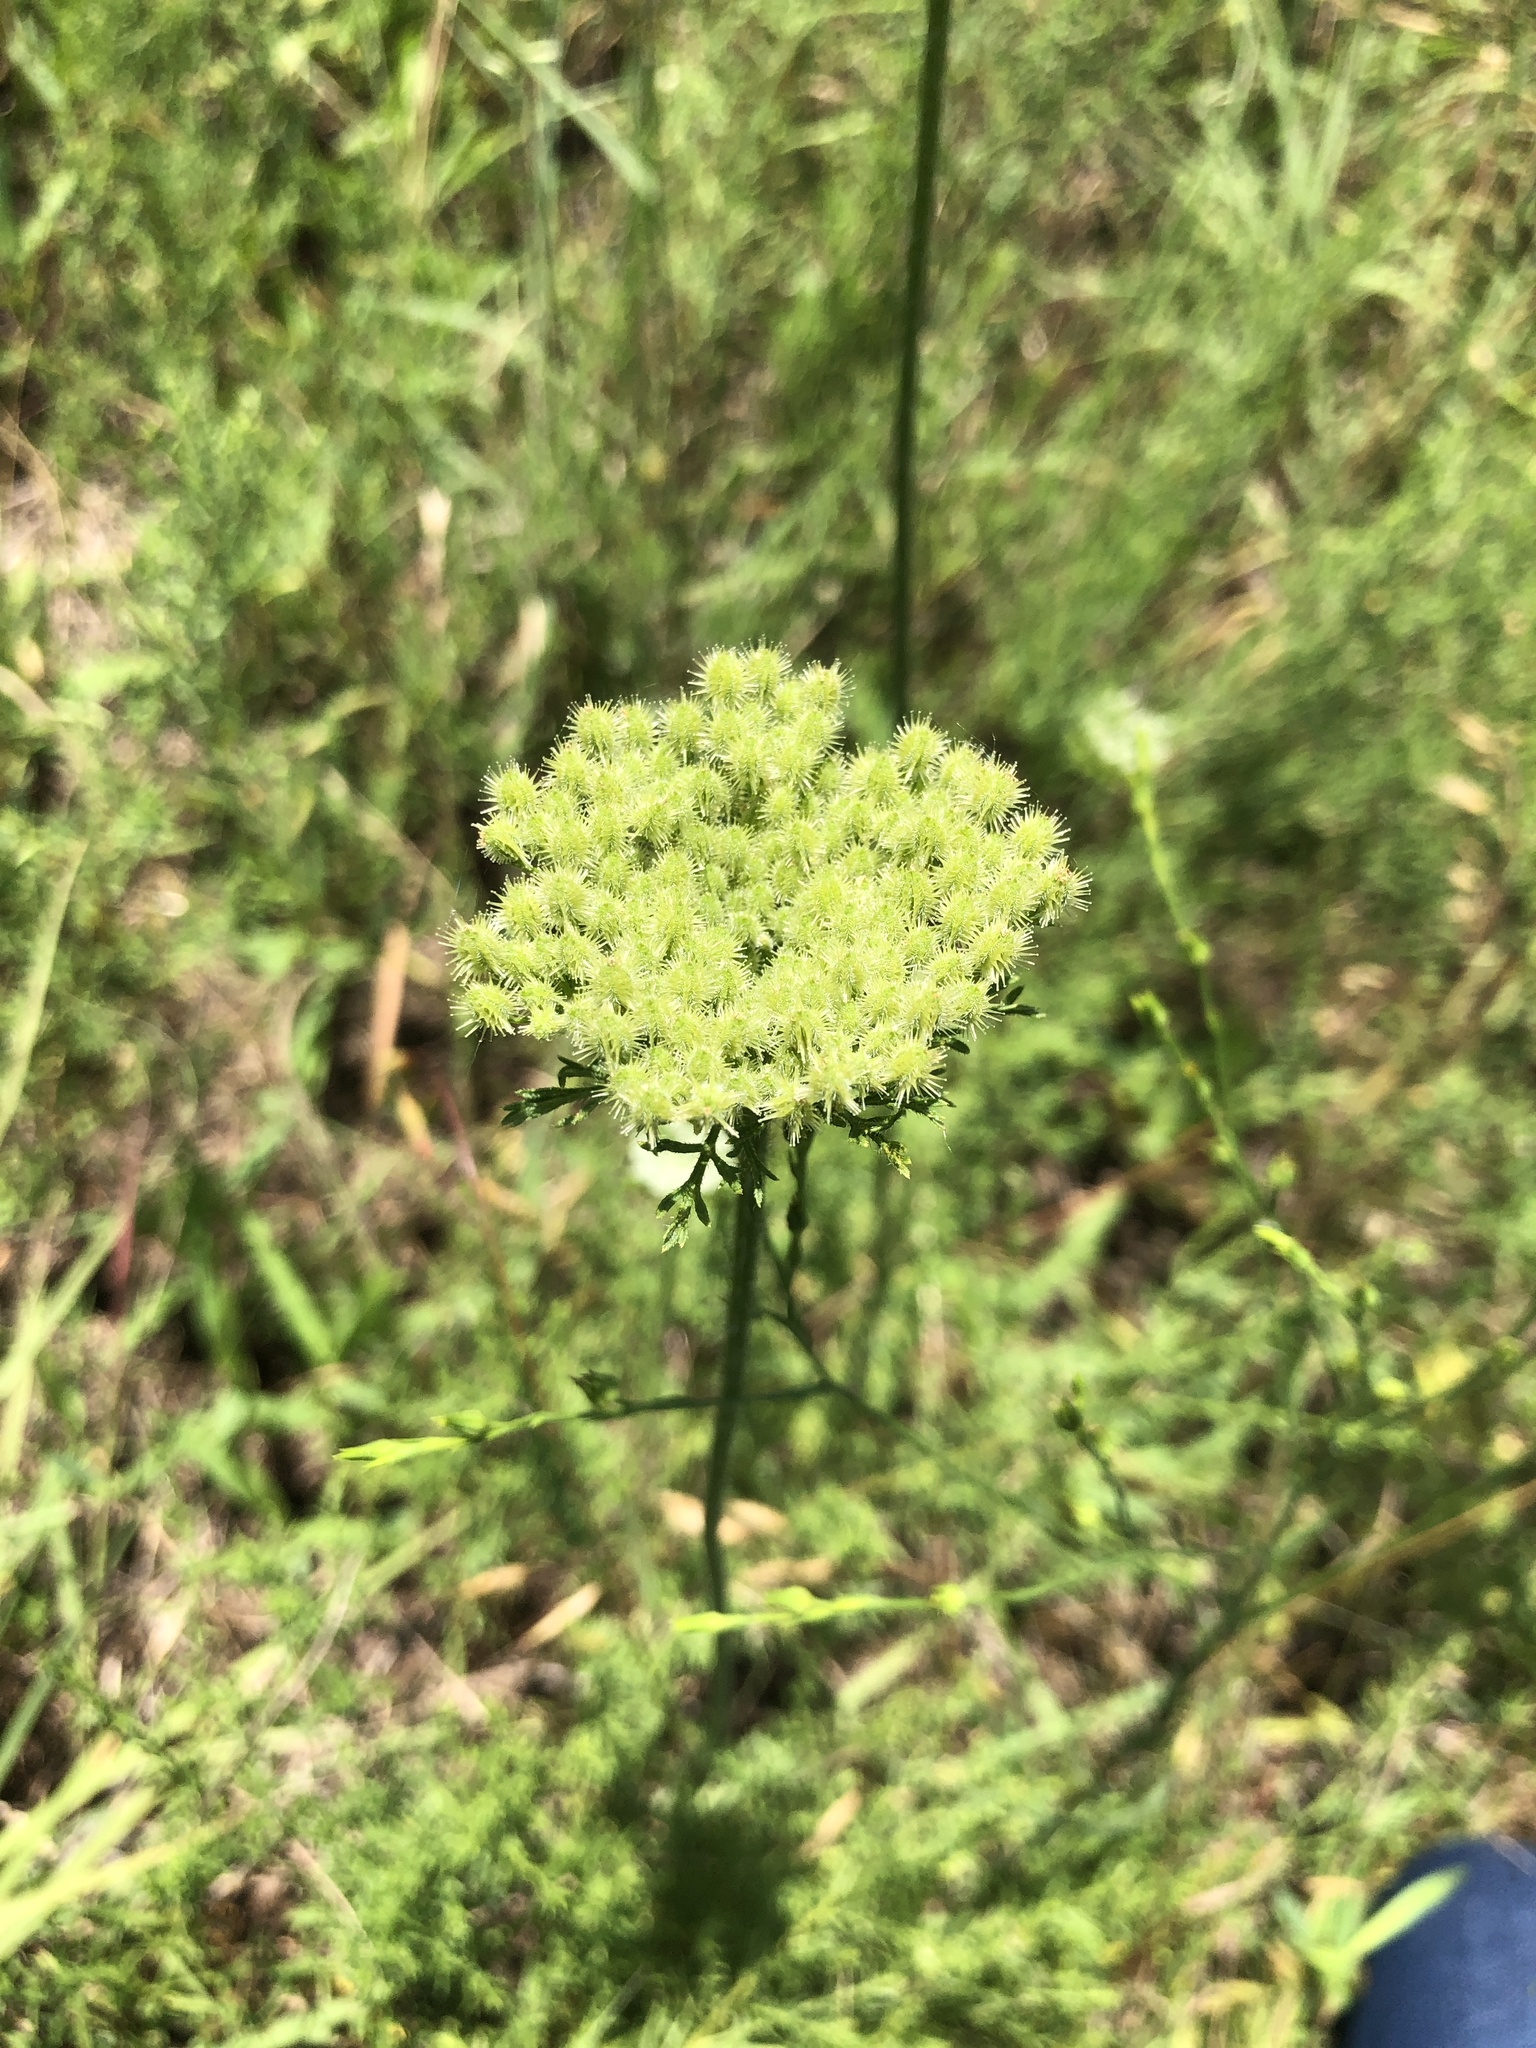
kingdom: Plantae
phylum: Tracheophyta
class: Magnoliopsida
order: Apiales
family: Apiaceae
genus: Daucus
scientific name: Daucus pusillus
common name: Southwest wild carrot
